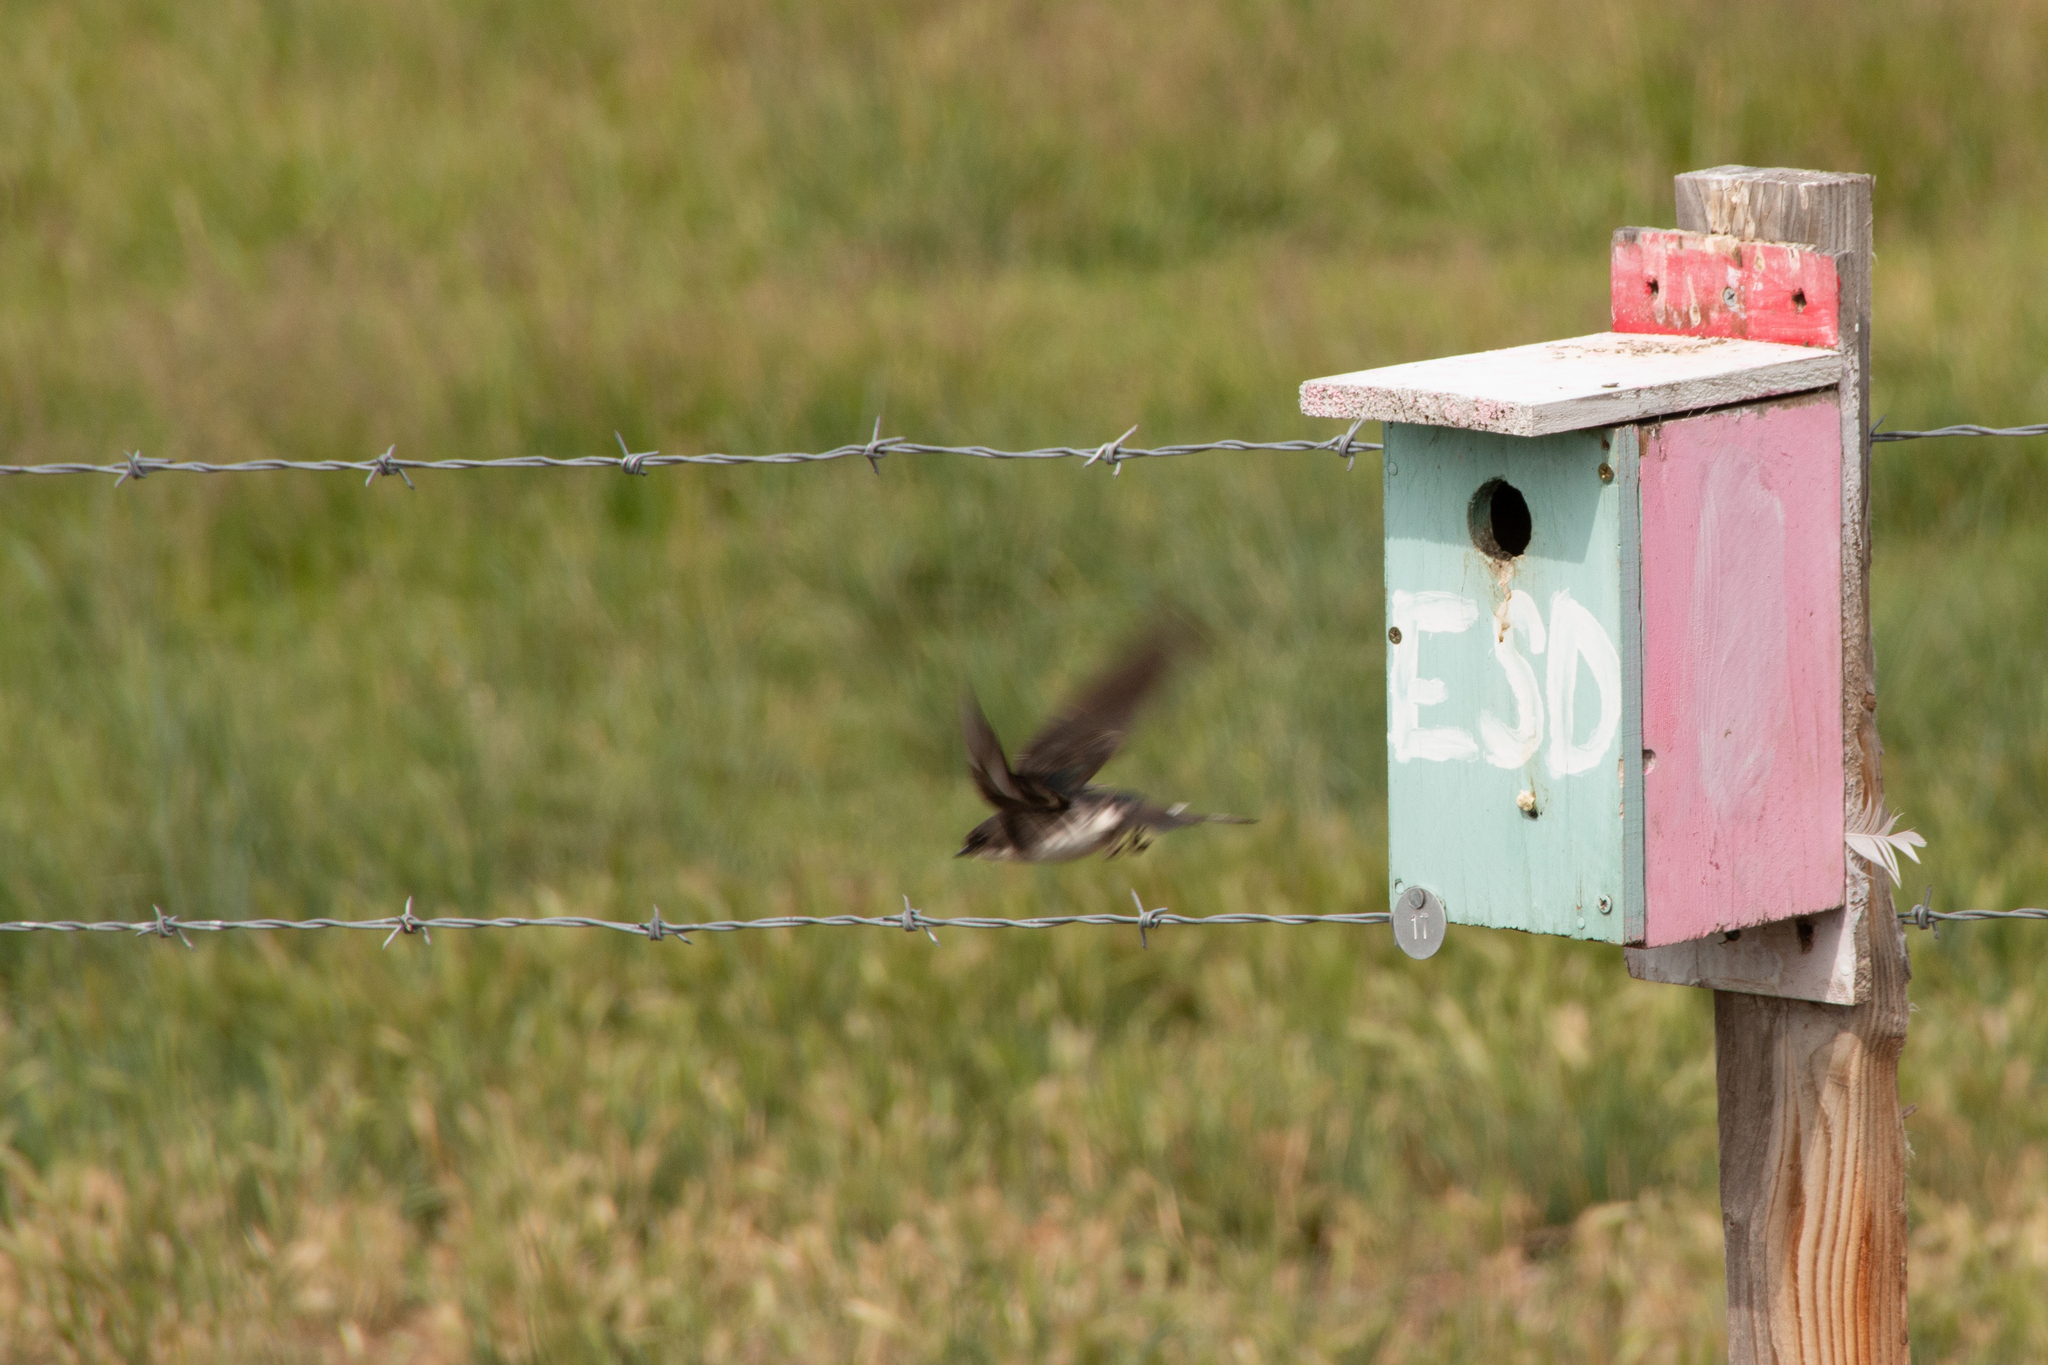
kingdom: Animalia
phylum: Chordata
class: Aves
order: Passeriformes
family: Hirundinidae
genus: Tachycineta
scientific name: Tachycineta bicolor
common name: Tree swallow
